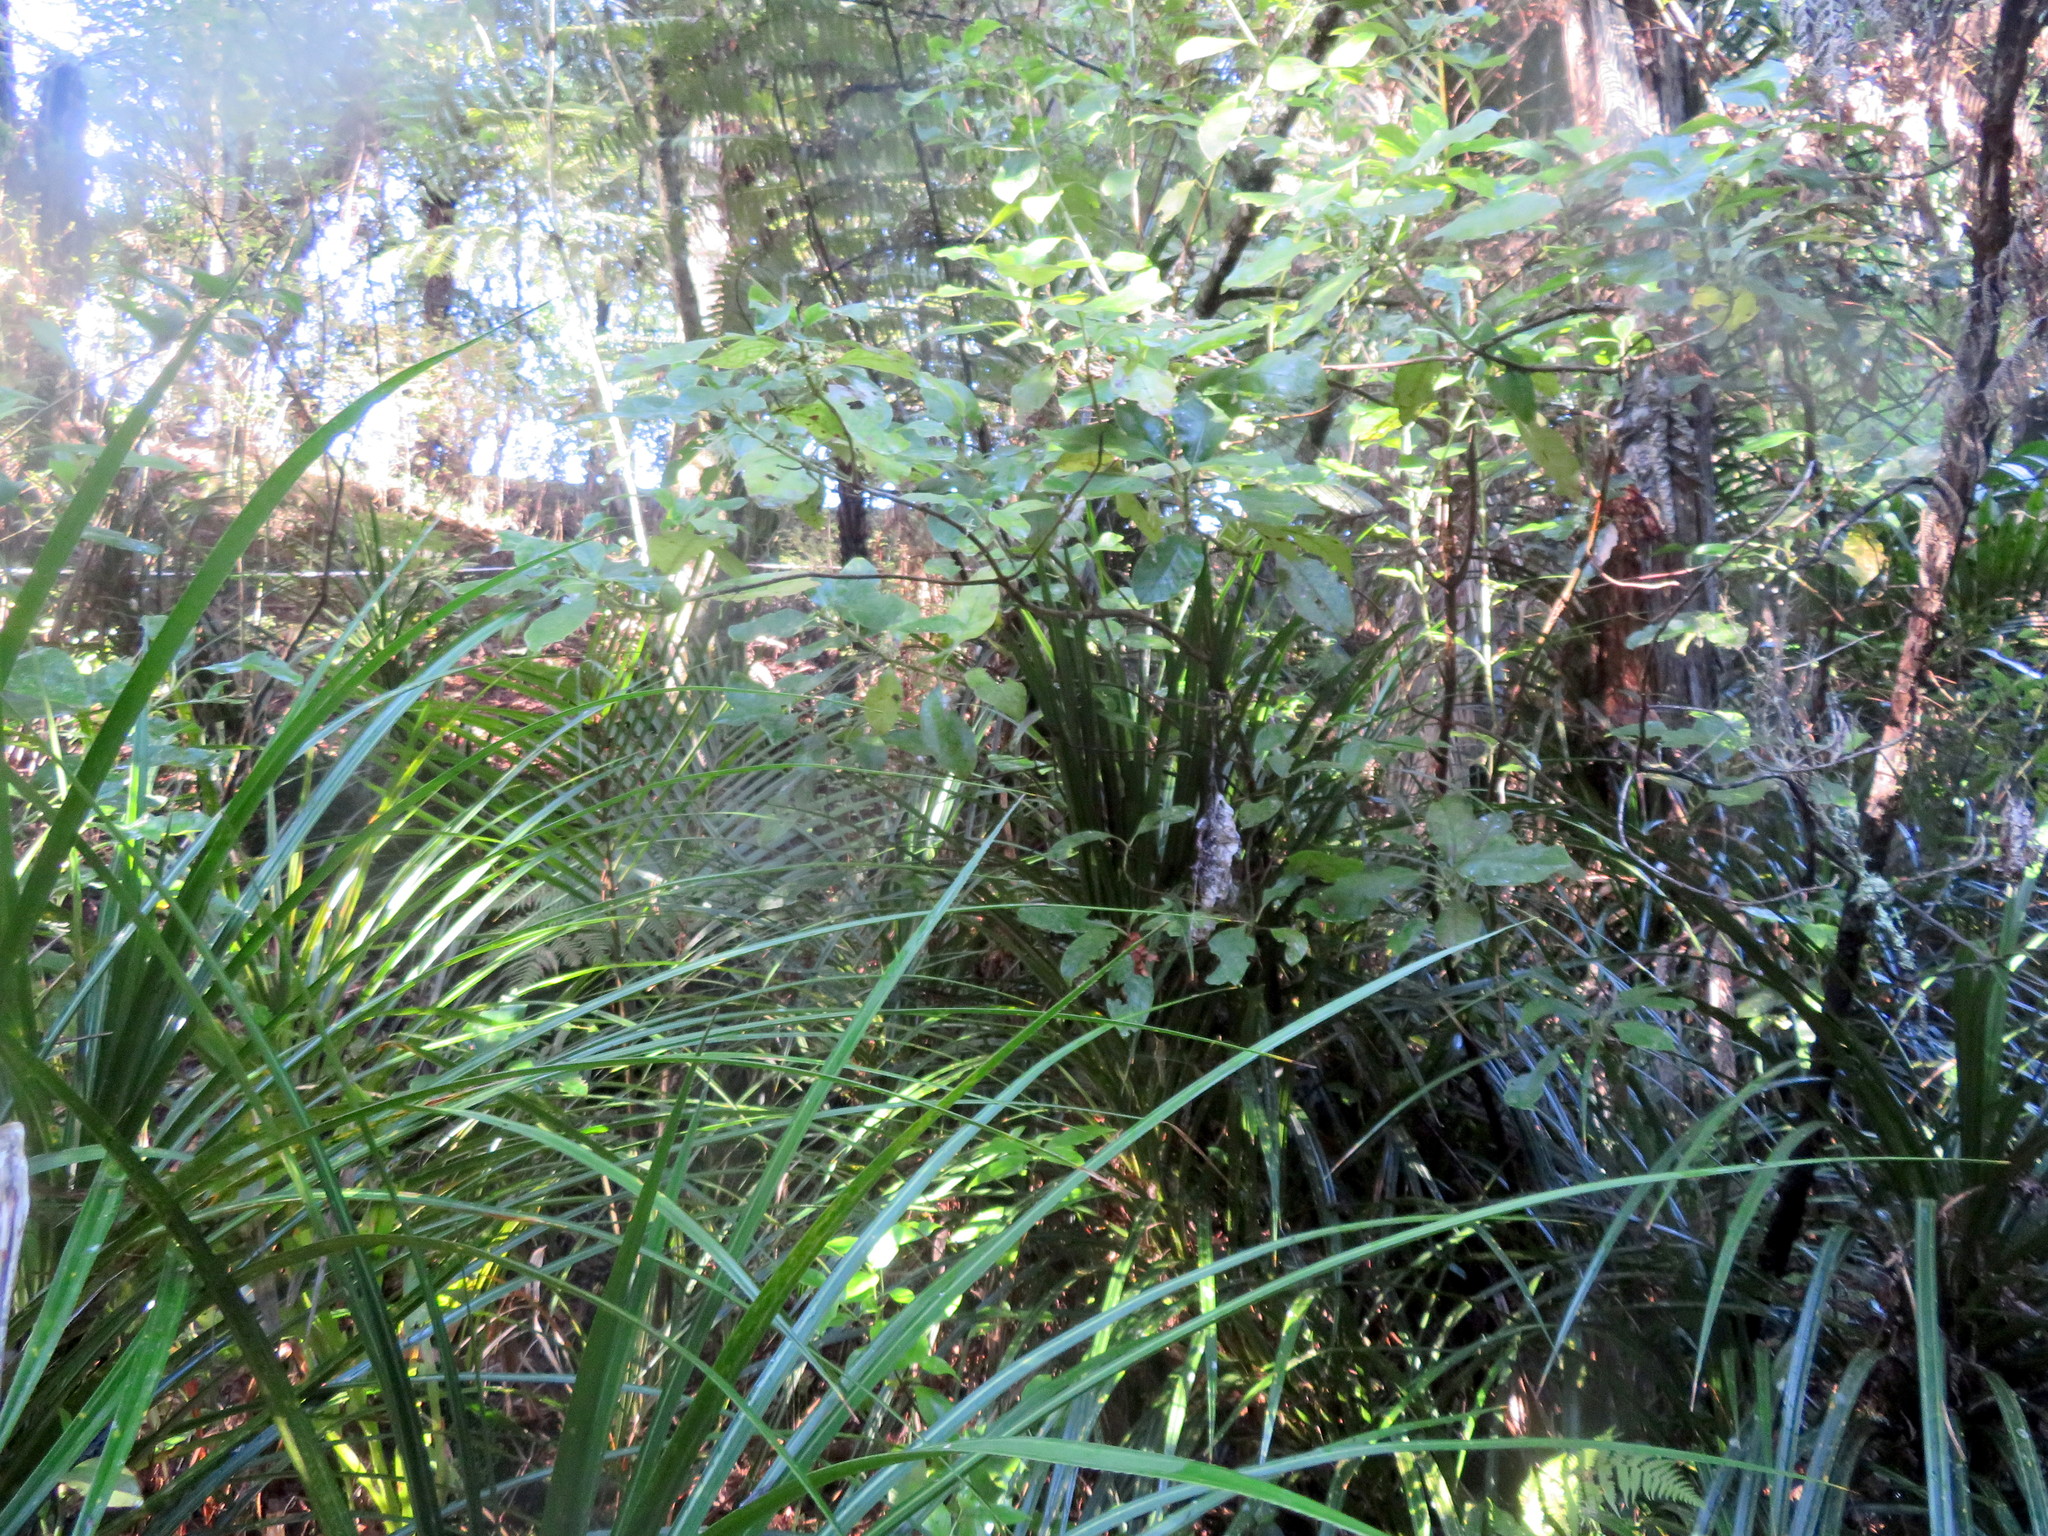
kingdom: Plantae
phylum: Tracheophyta
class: Liliopsida
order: Arecales
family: Arecaceae
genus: Rhopalostylis
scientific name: Rhopalostylis sapida
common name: Feather-duster palm
